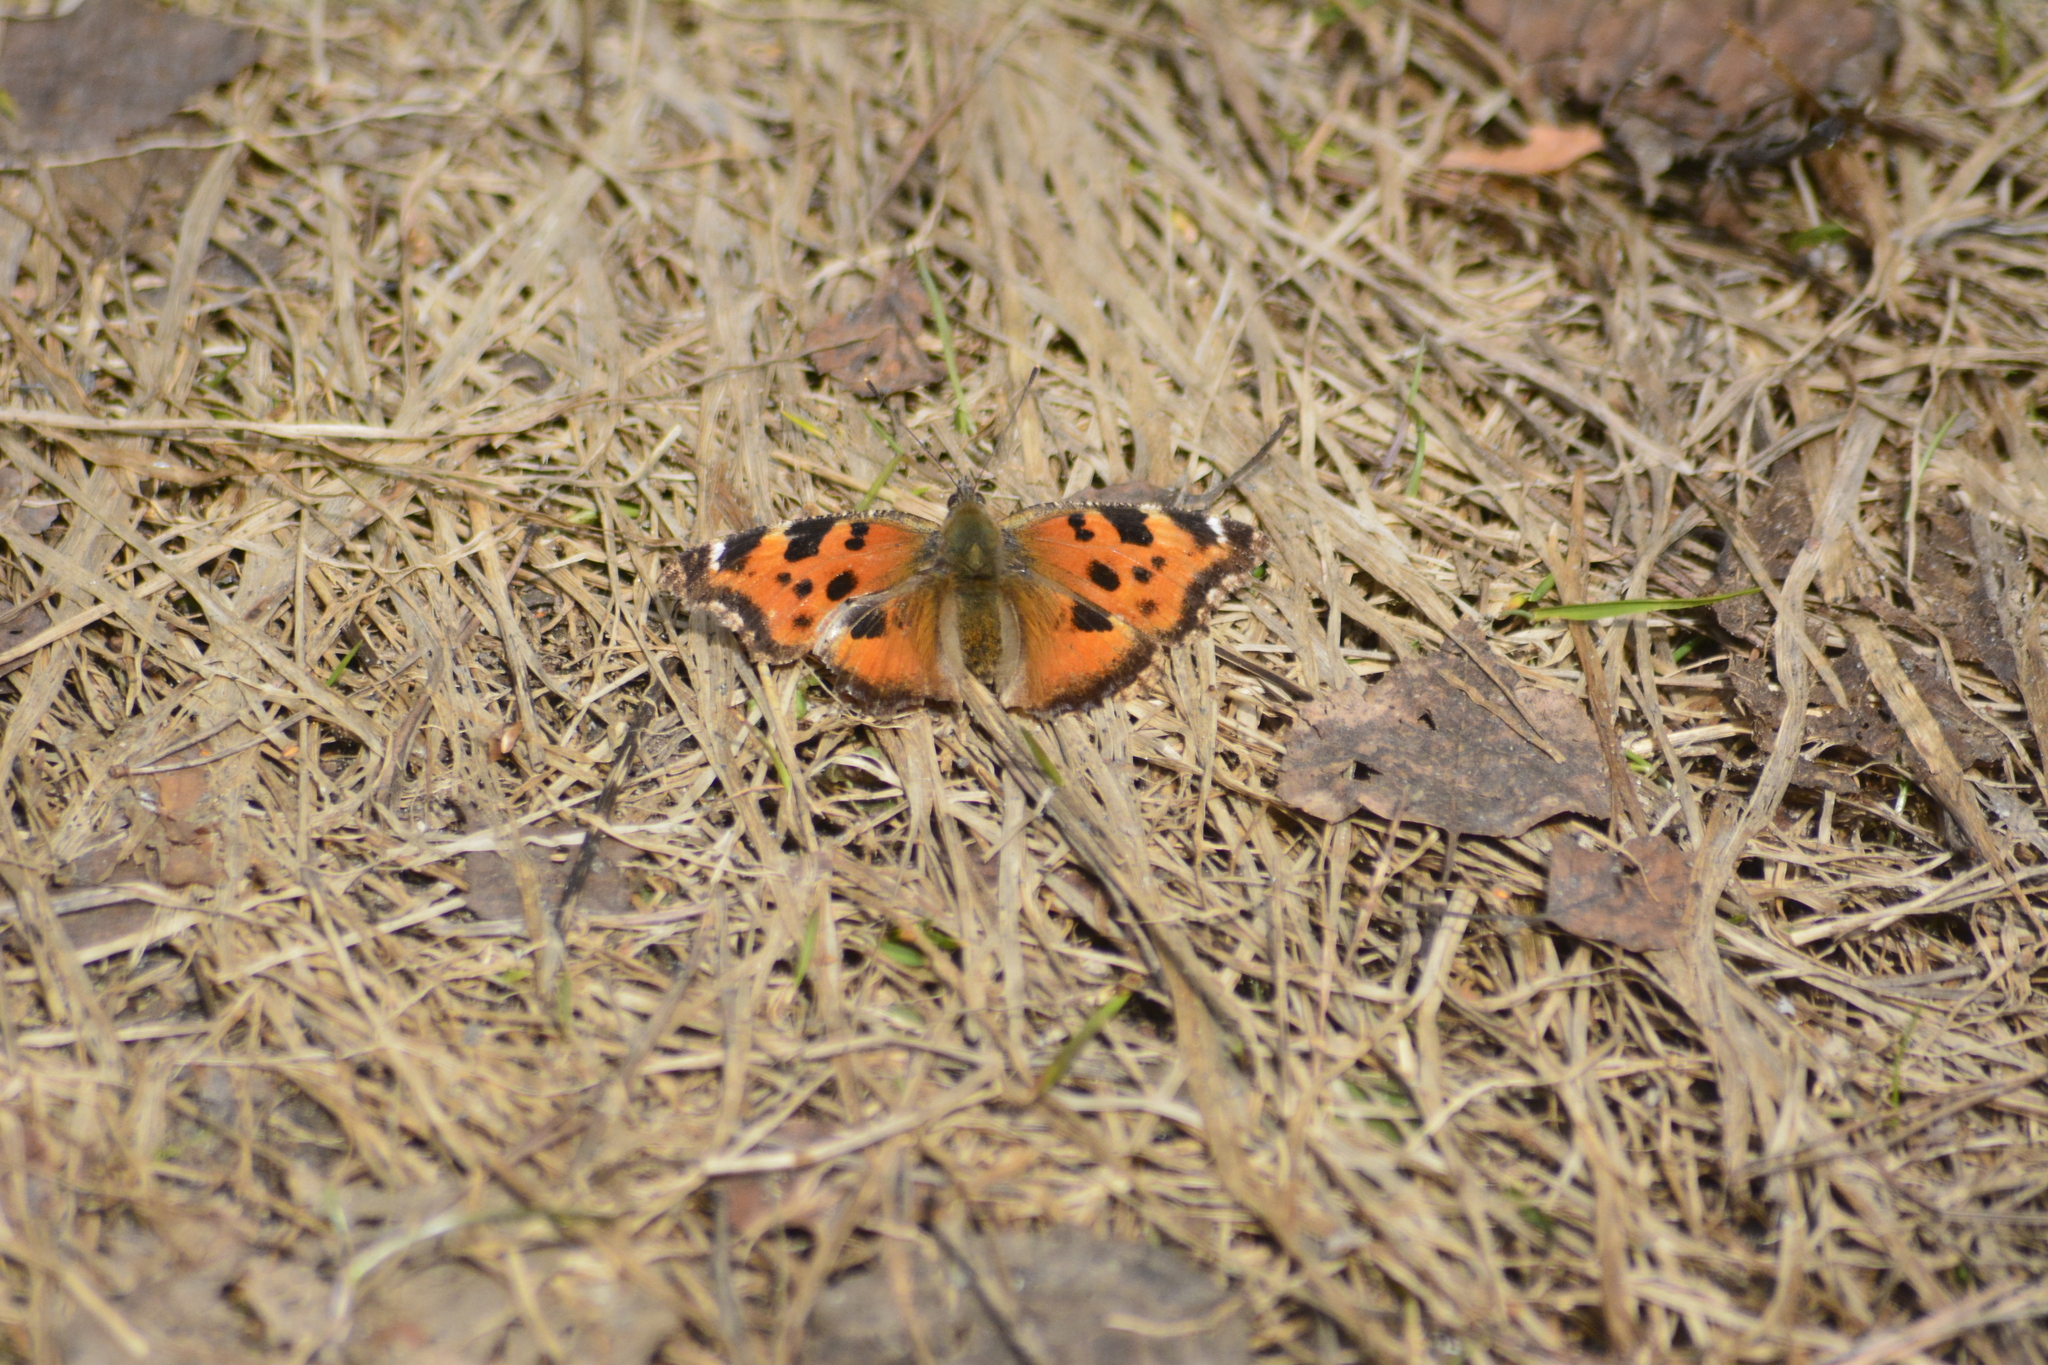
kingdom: Animalia
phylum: Arthropoda
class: Insecta
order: Lepidoptera
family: Nymphalidae
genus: Nymphalis
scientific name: Nymphalis xanthomelas
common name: Scarce tortoiseshell
